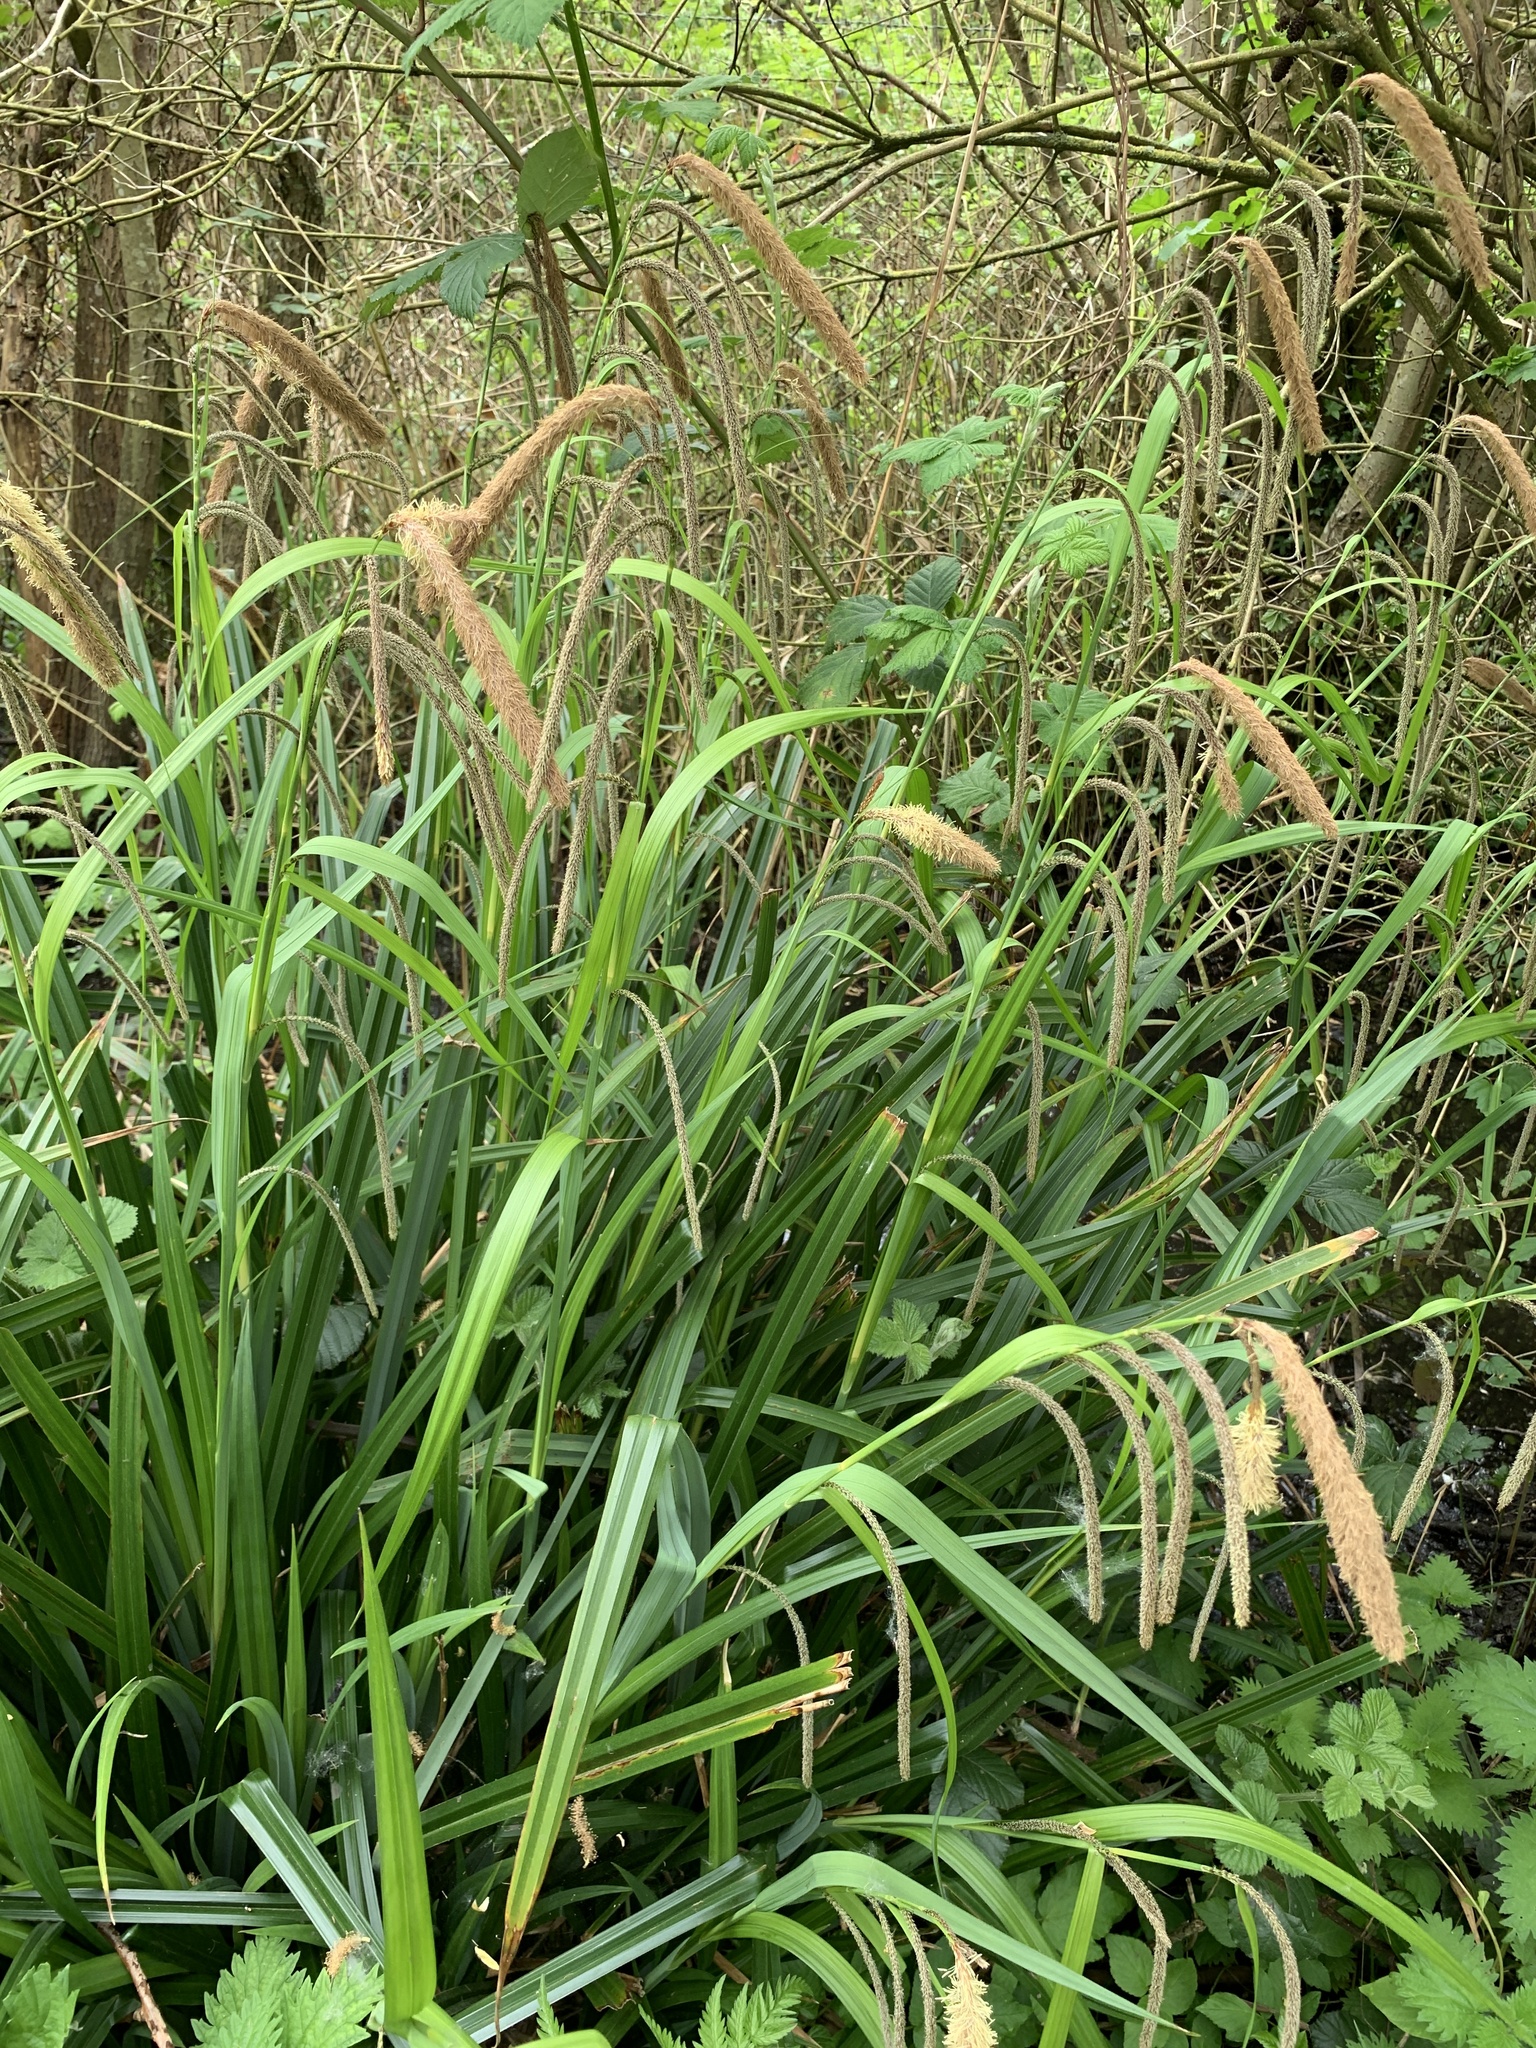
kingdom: Plantae
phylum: Tracheophyta
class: Liliopsida
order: Poales
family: Cyperaceae
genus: Carex
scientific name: Carex pendula
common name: Pendulous sedge
